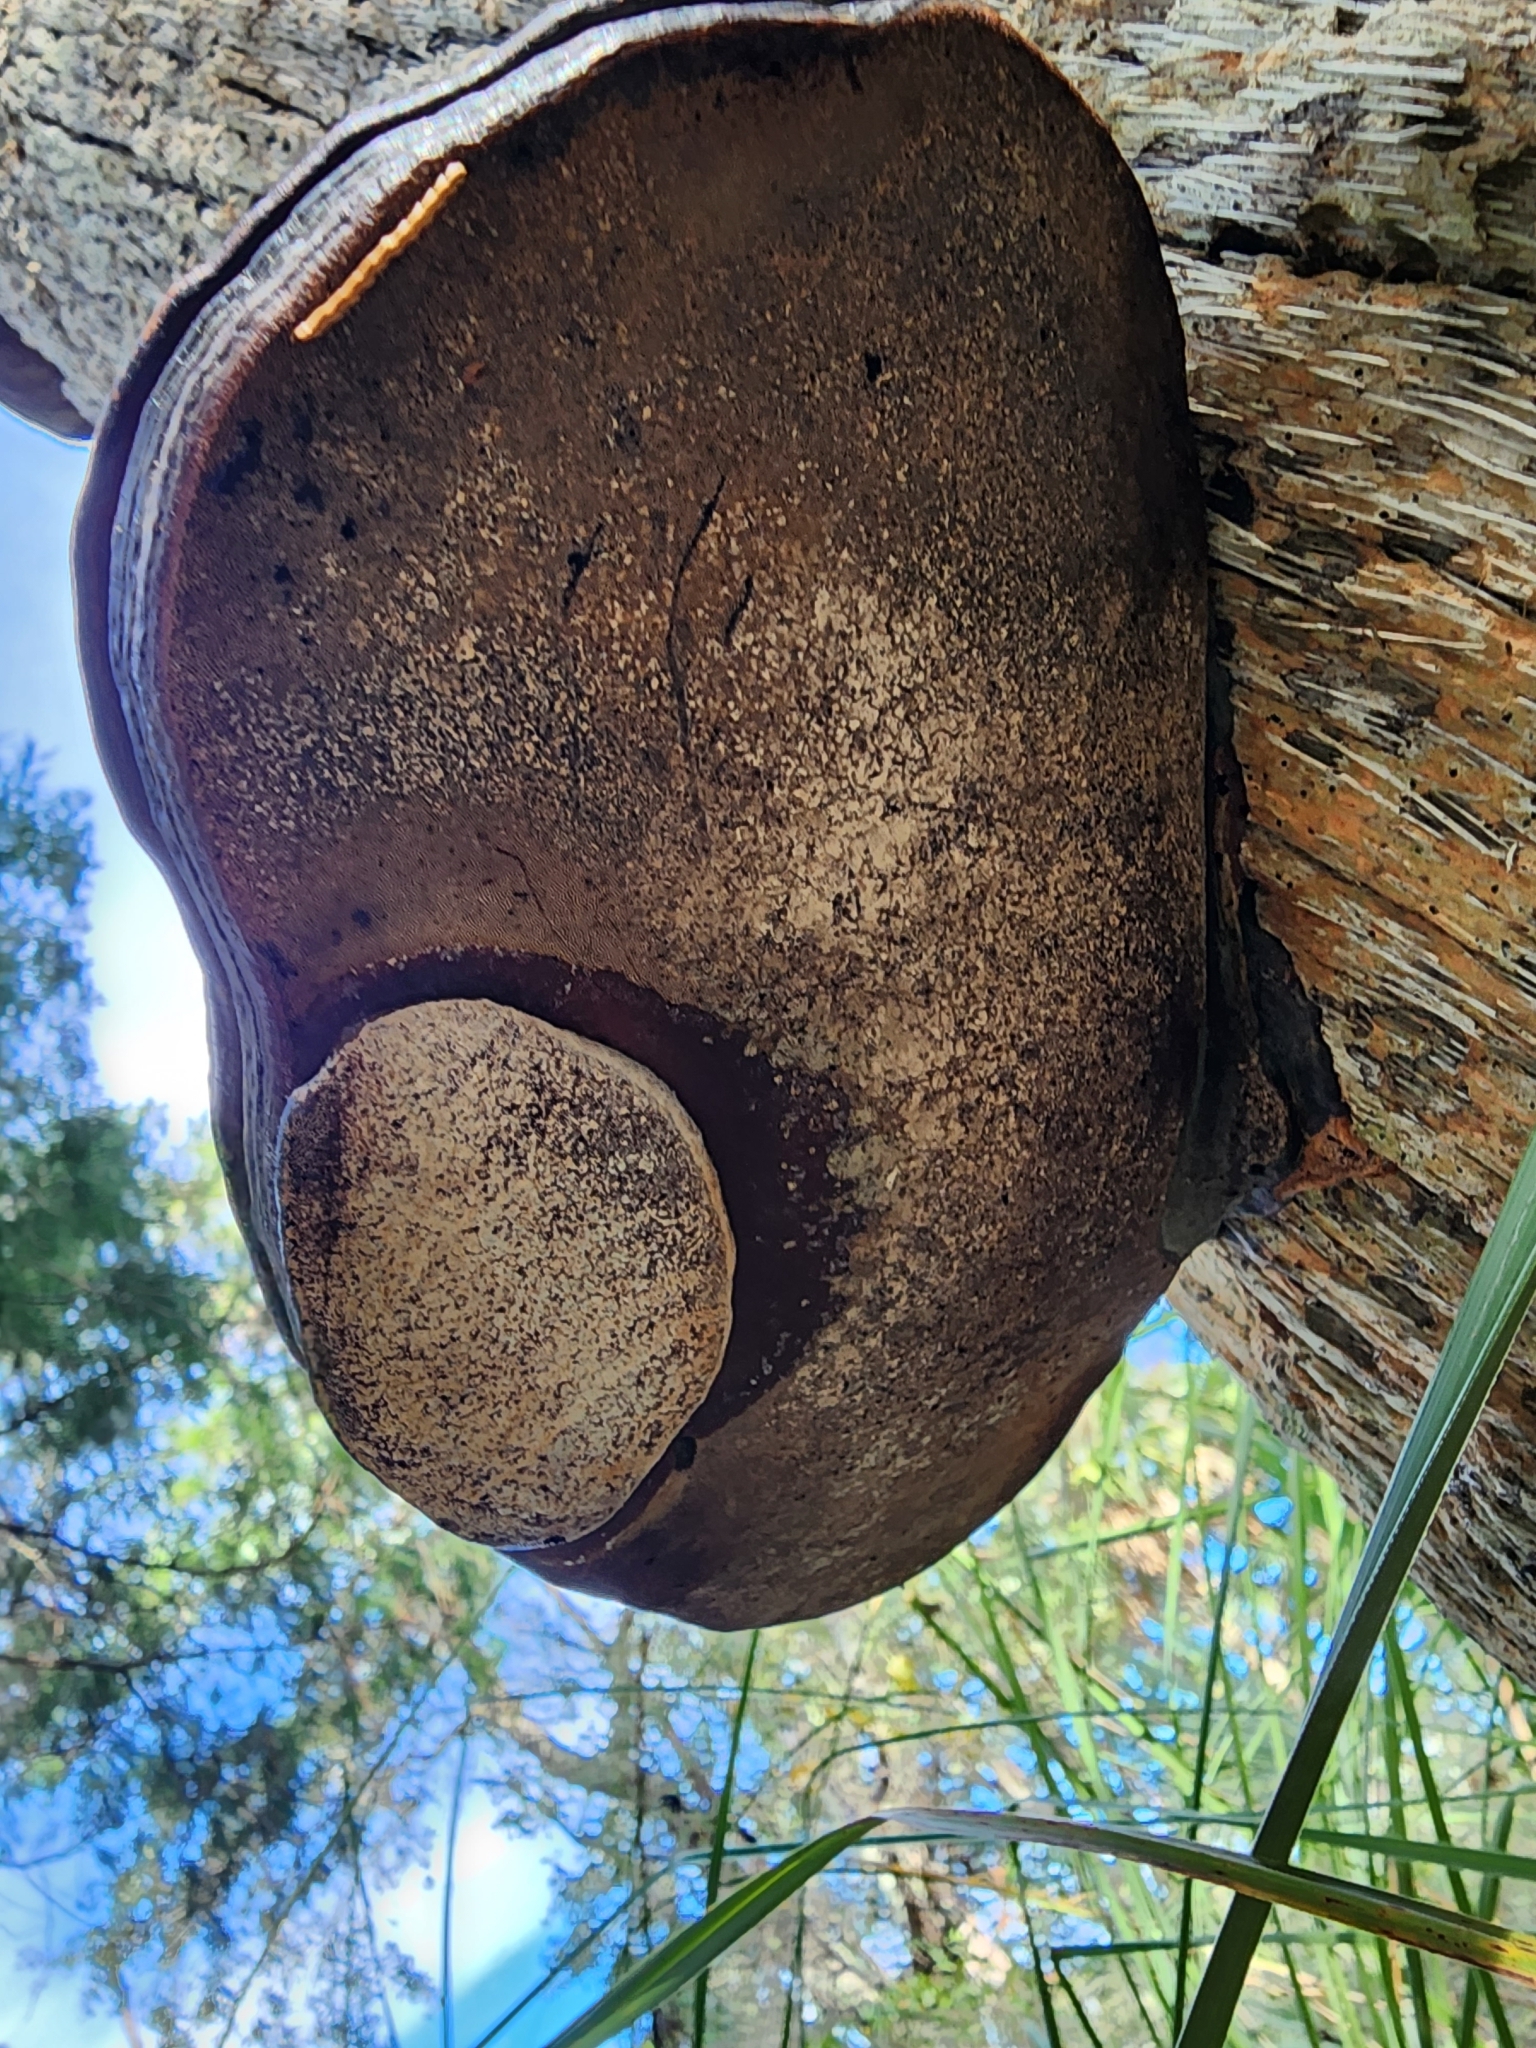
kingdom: Fungi
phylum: Basidiomycota
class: Agaricomycetes
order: Polyporales
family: Polyporaceae
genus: Ganoderma
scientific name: Ganoderma zonatum
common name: Ganoderma butt rot
